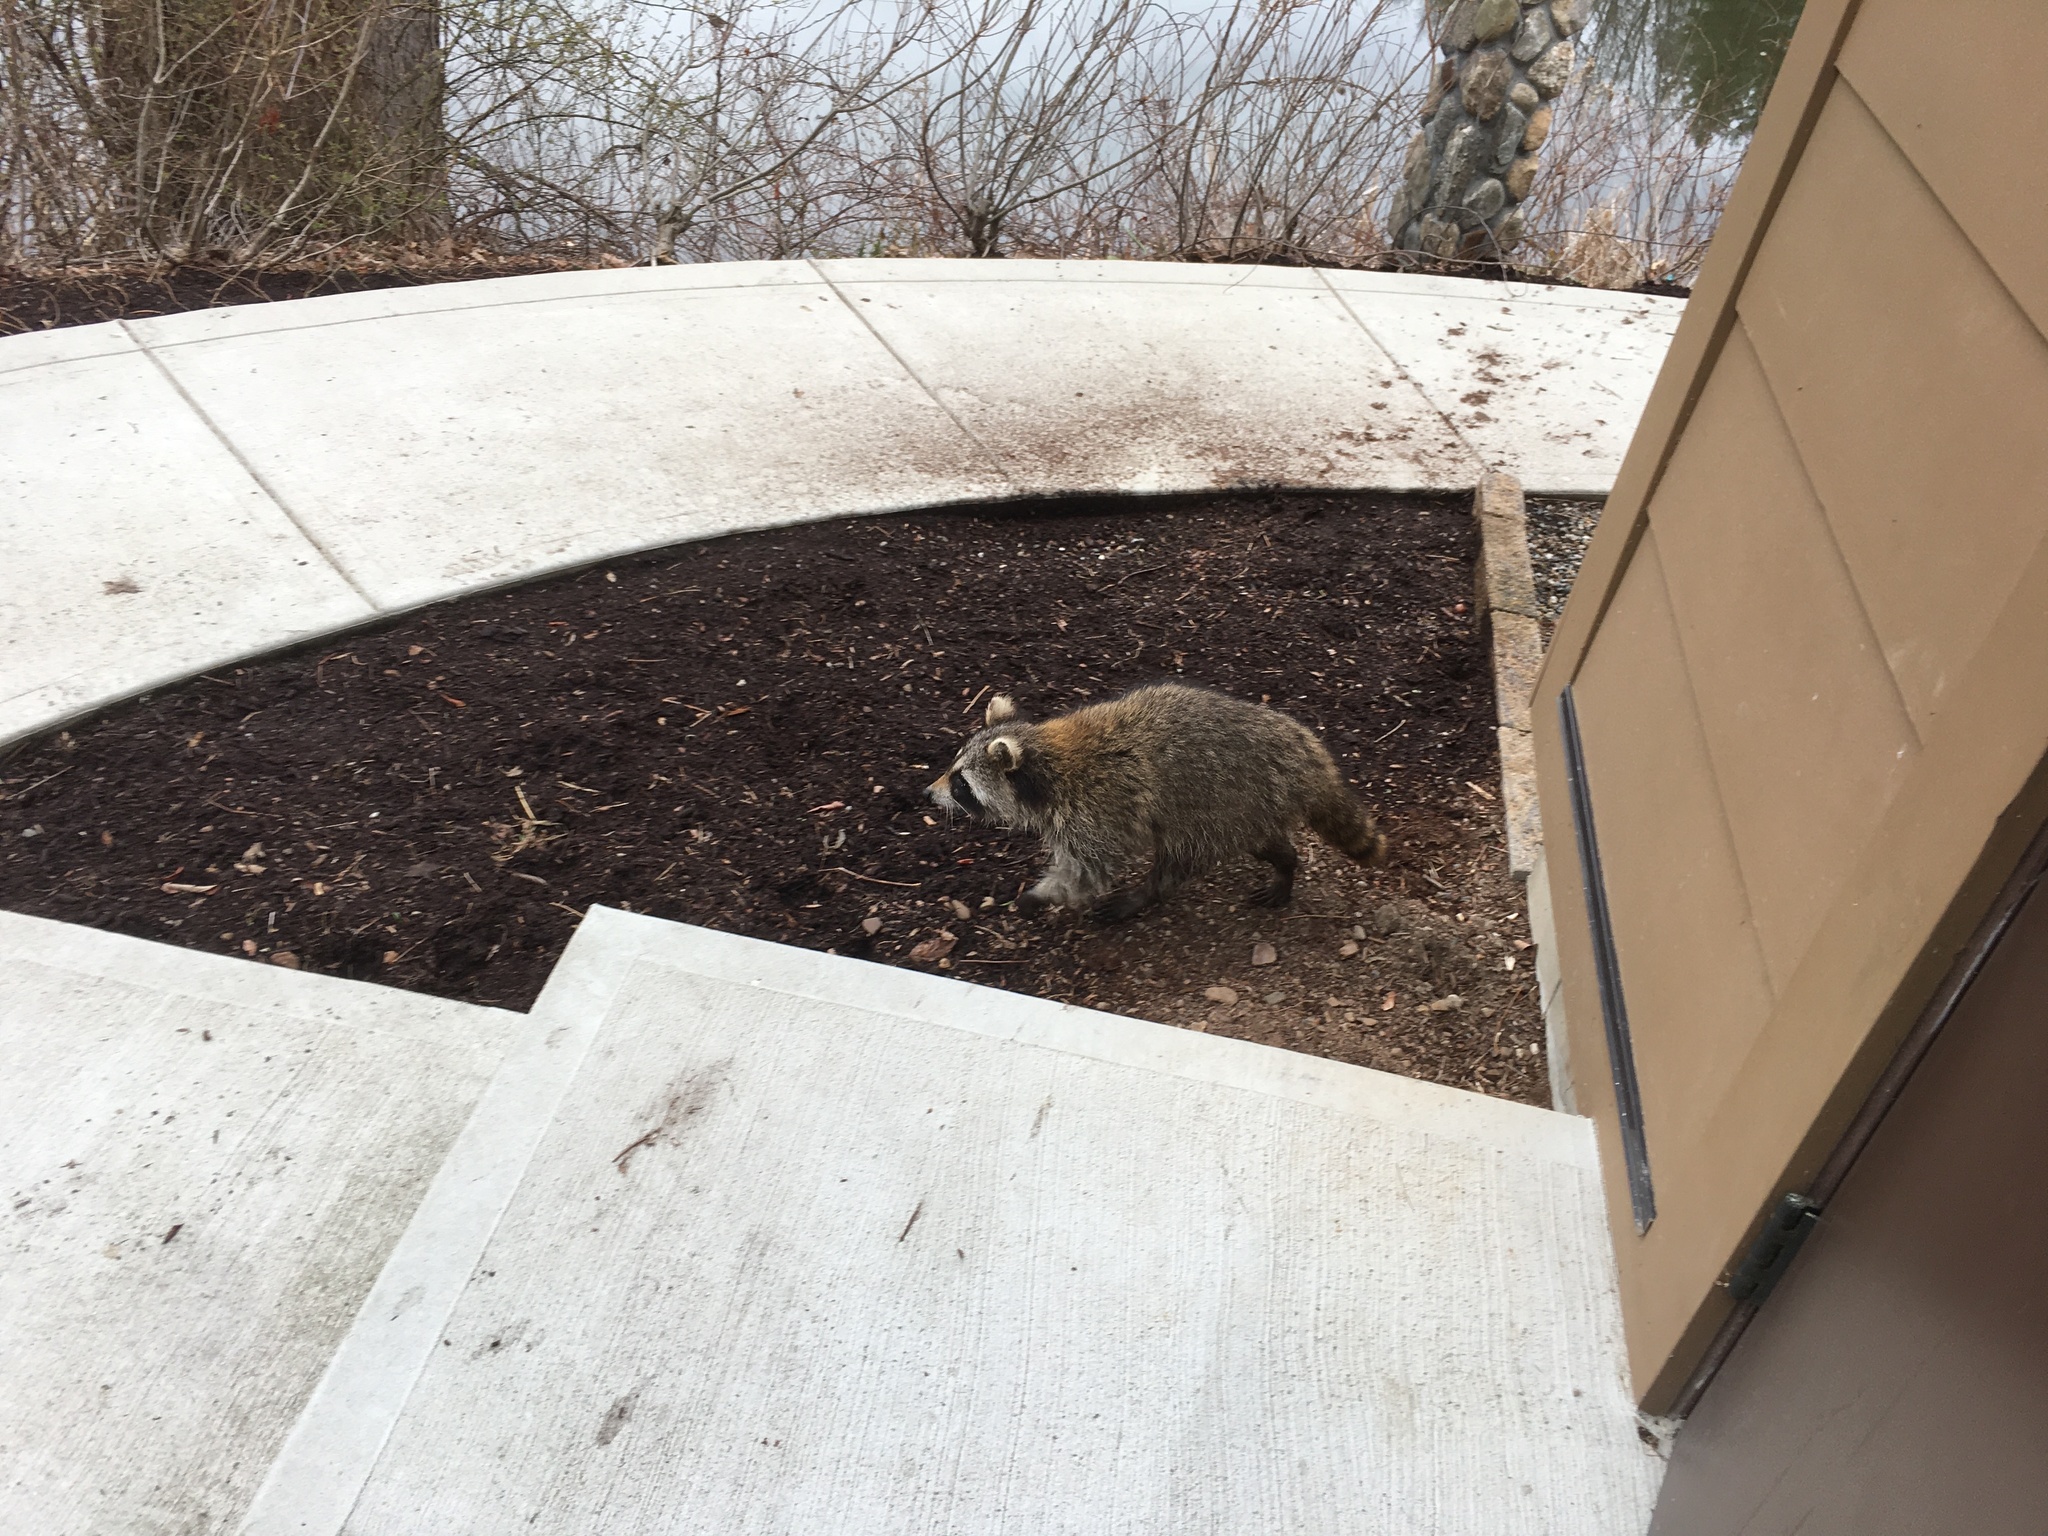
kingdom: Animalia
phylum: Chordata
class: Mammalia
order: Carnivora
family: Procyonidae
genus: Procyon
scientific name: Procyon lotor
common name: Raccoon
